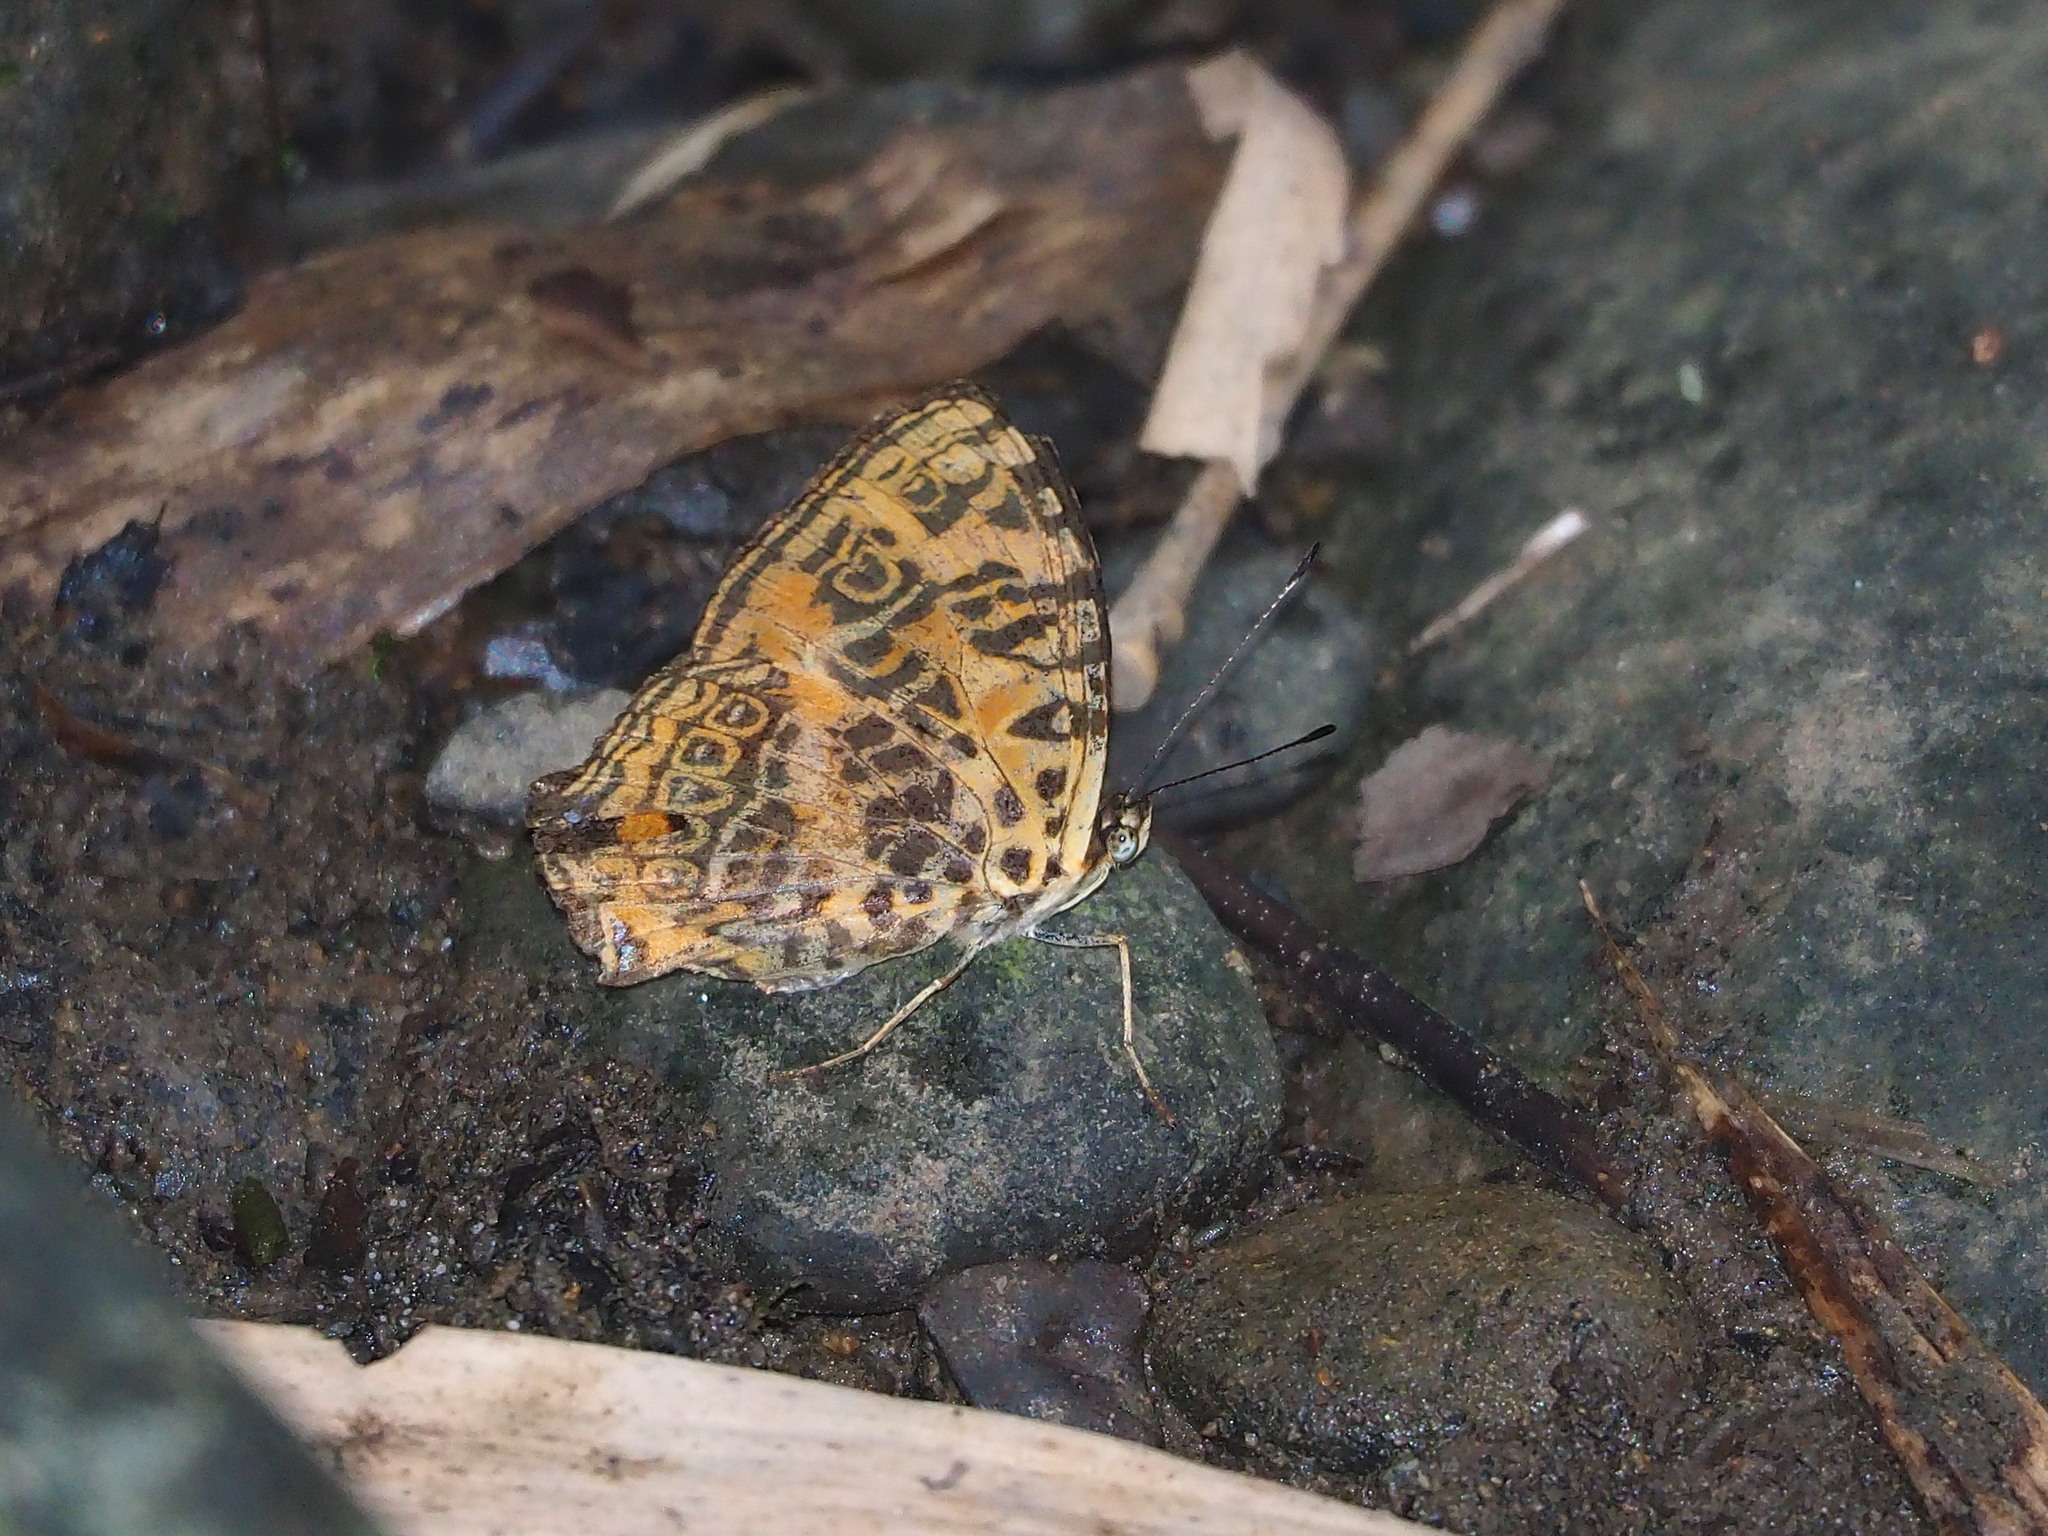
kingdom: Animalia
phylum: Arthropoda
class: Insecta
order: Lepidoptera
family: Nymphalidae
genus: Symbrenthia
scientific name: Symbrenthia brabira
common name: Yellow jester
